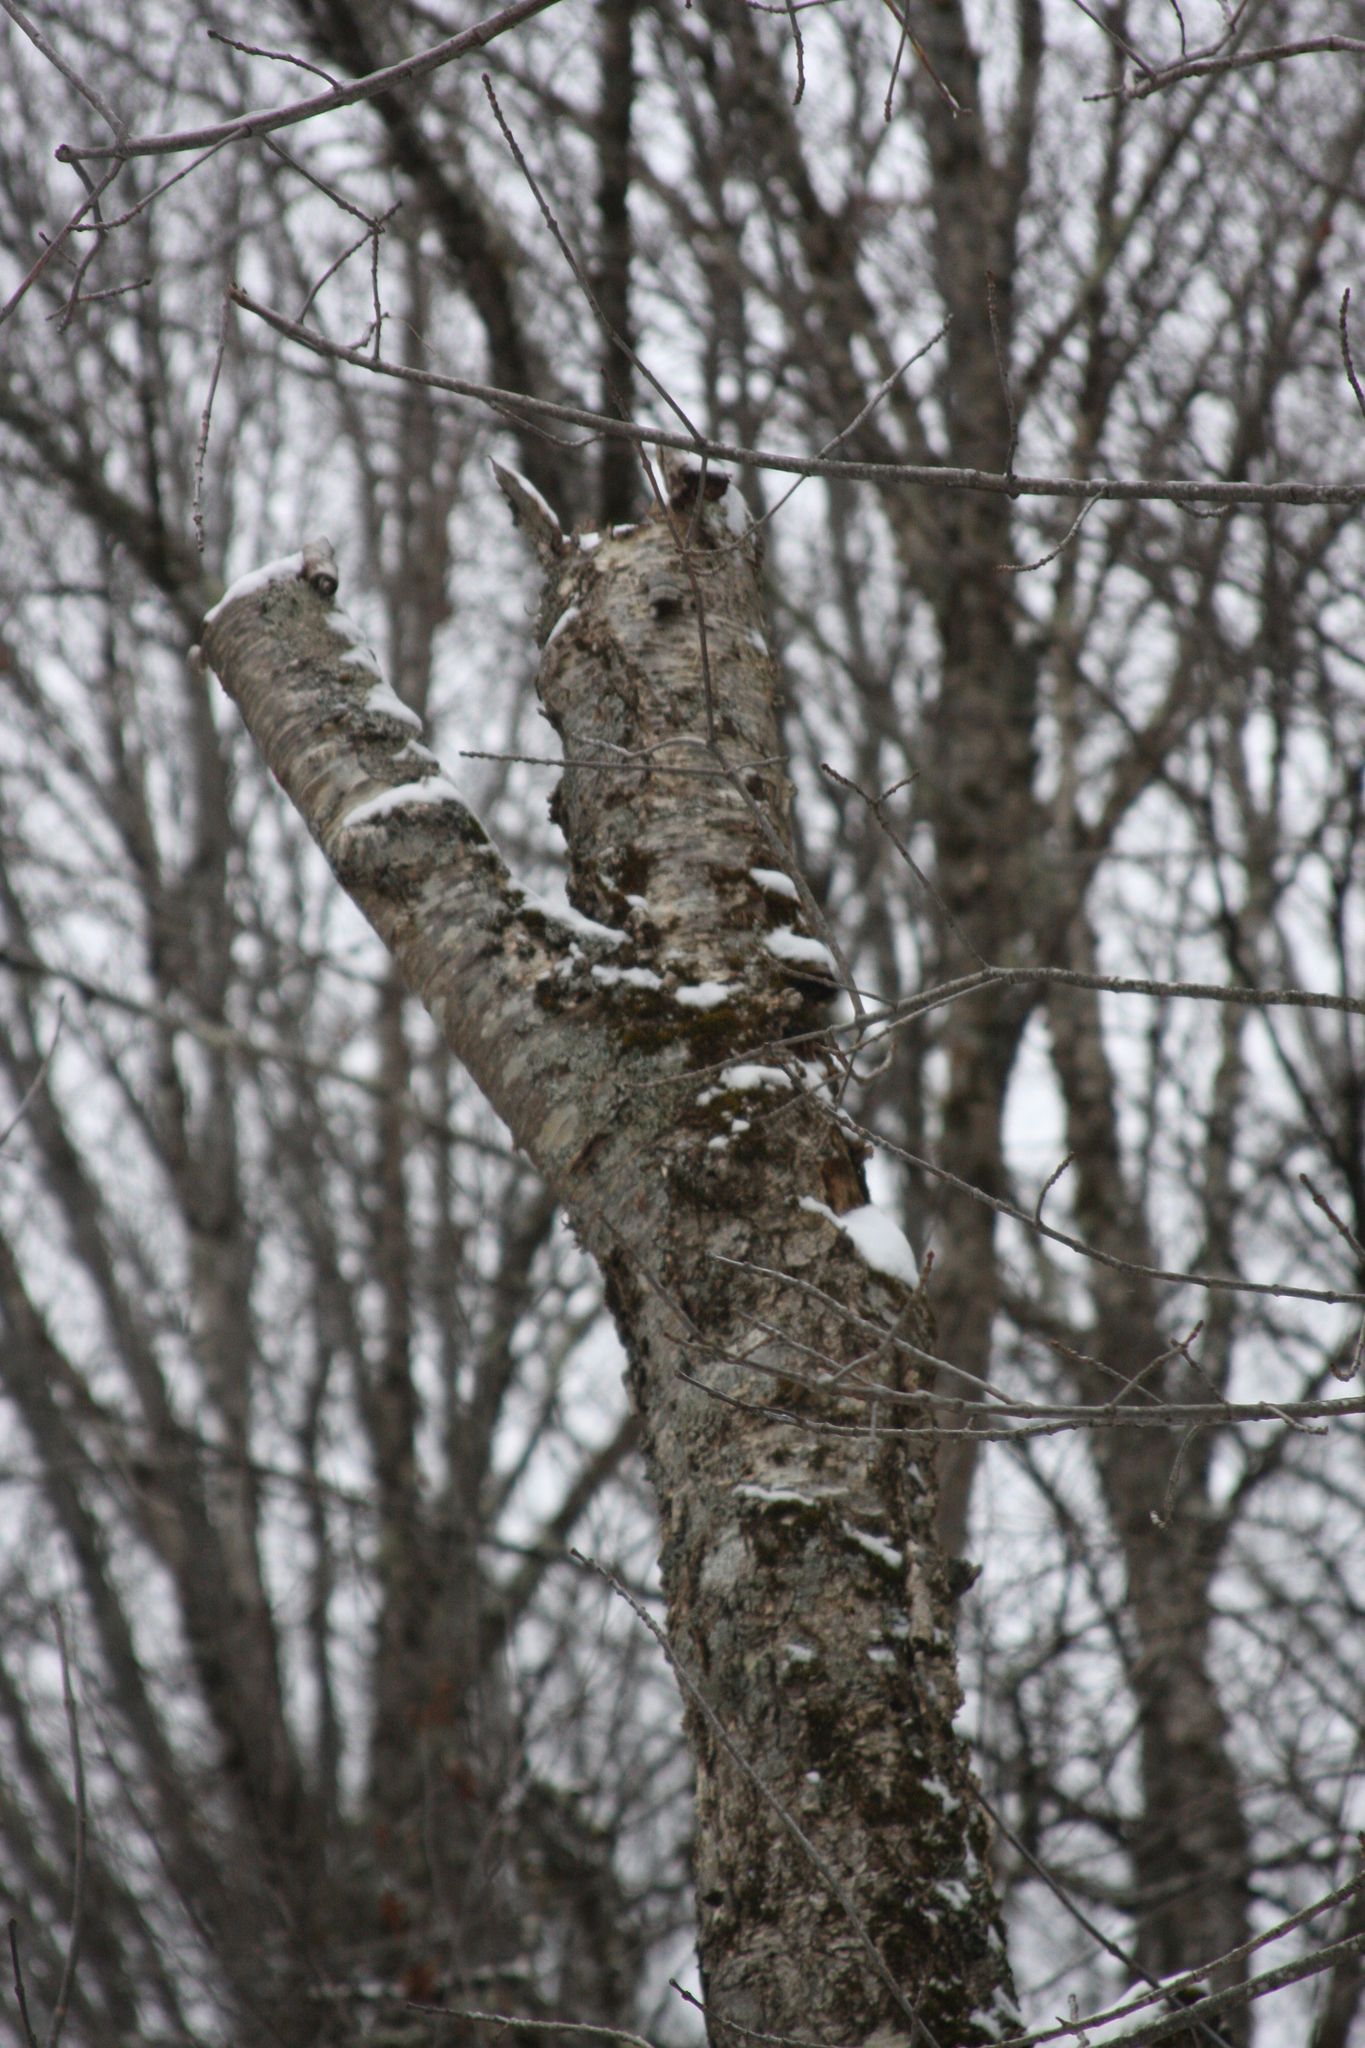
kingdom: Plantae
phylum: Tracheophyta
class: Magnoliopsida
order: Fagales
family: Betulaceae
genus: Betula
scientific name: Betula alleghaniensis
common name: Yellow birch
